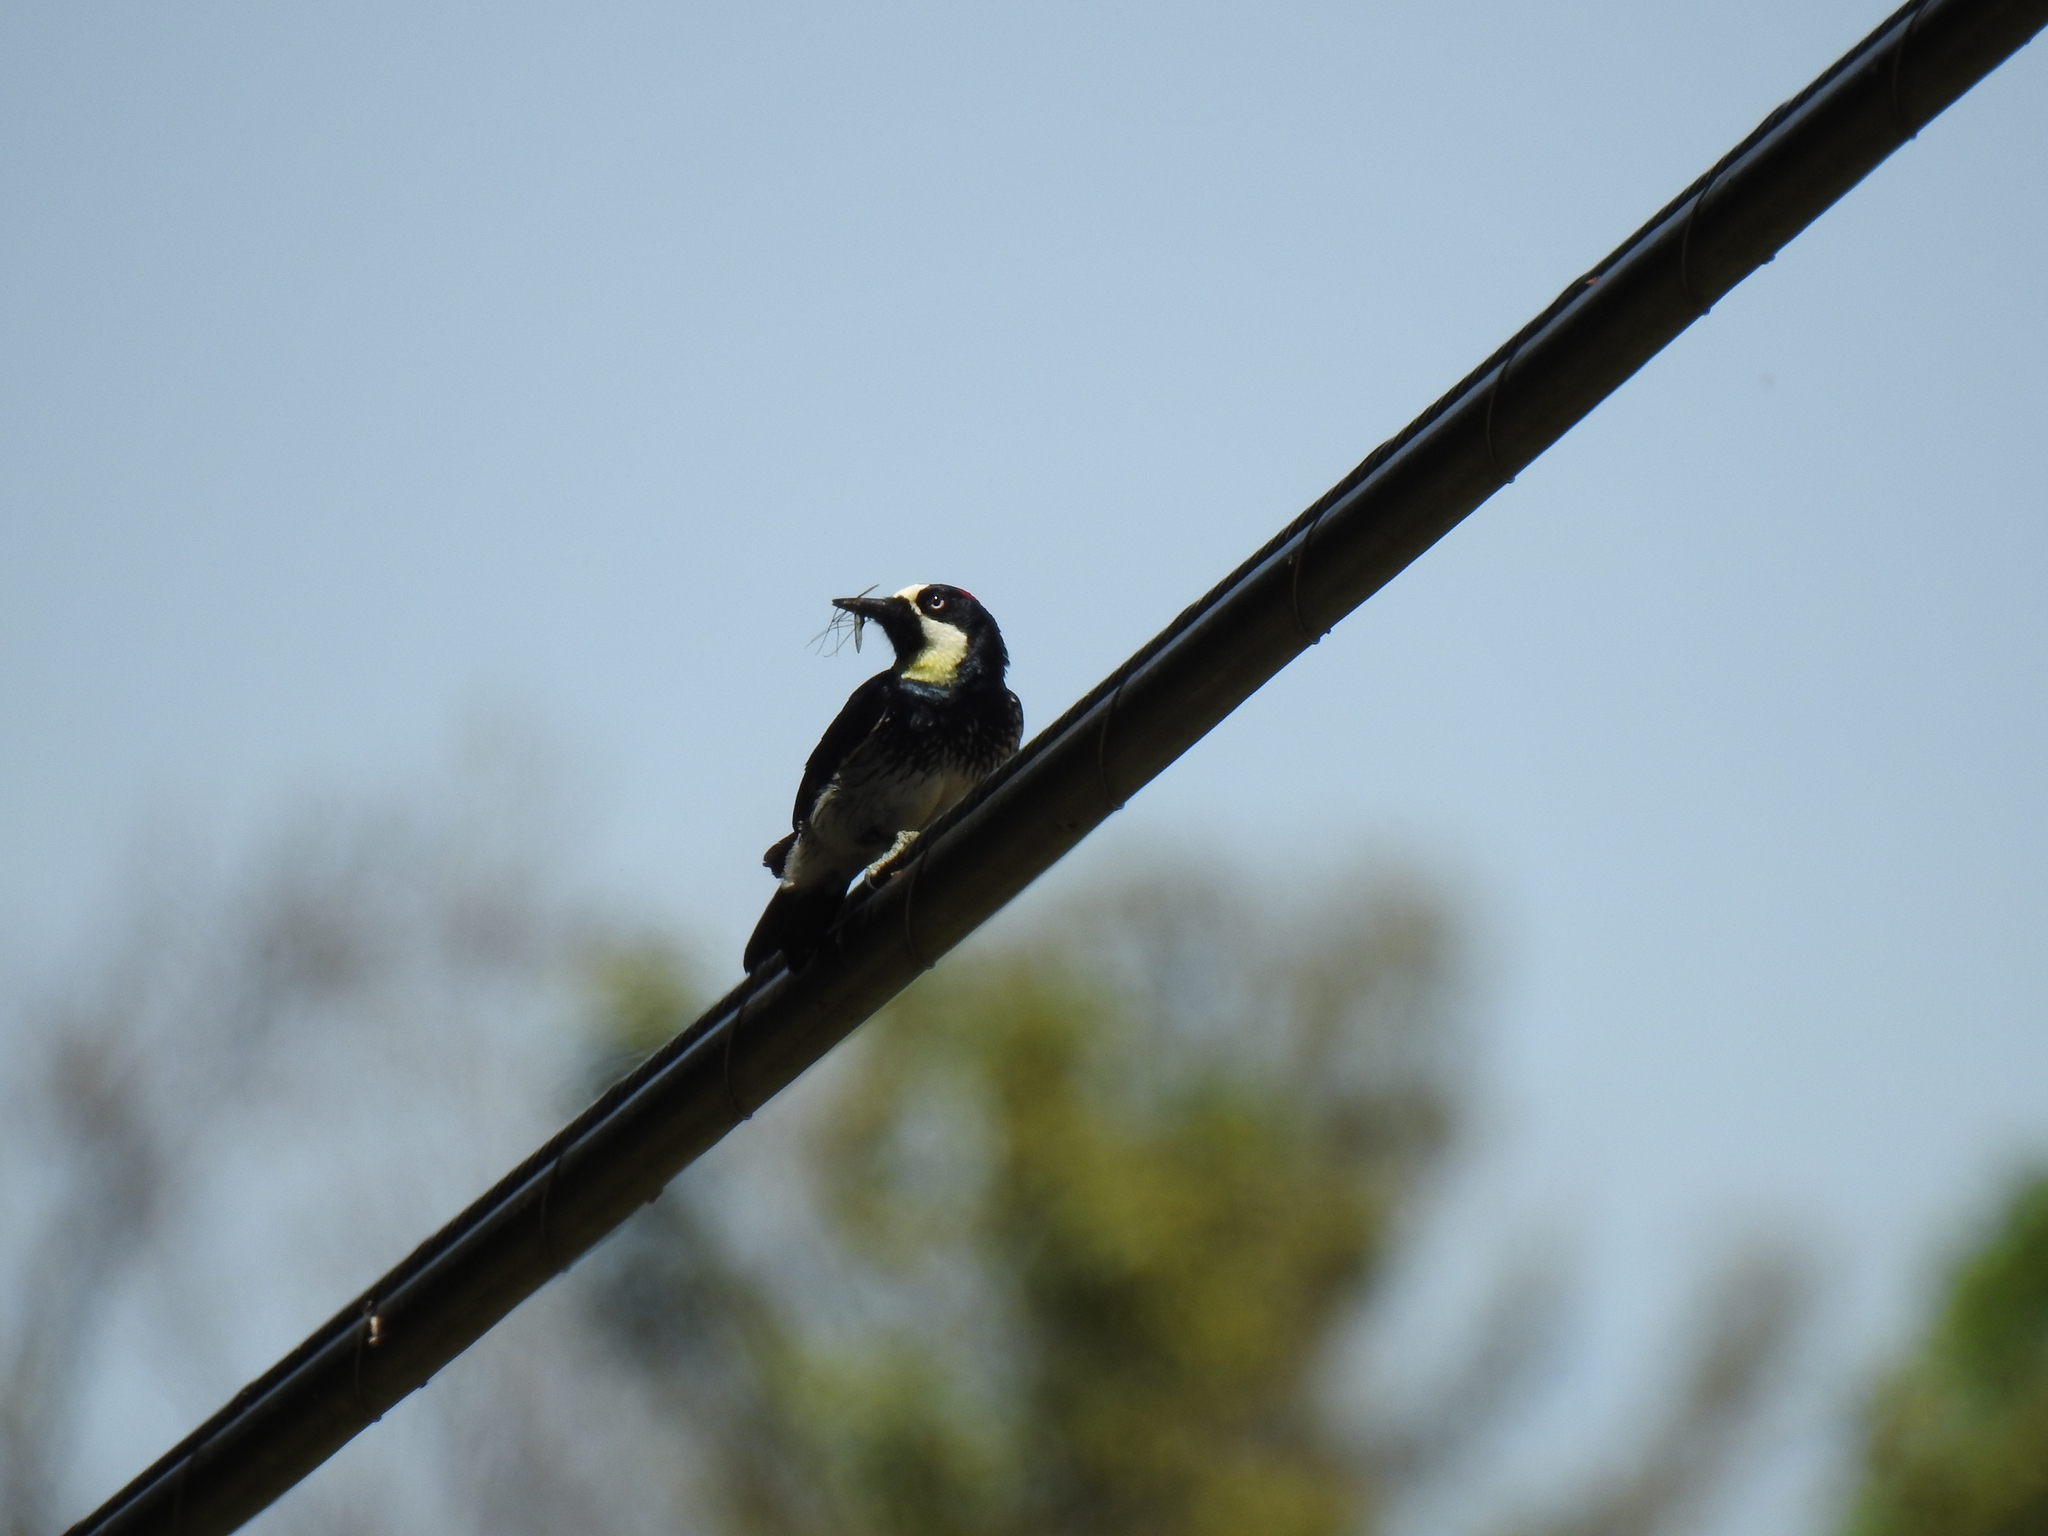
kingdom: Animalia
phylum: Chordata
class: Aves
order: Piciformes
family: Picidae
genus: Melanerpes
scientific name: Melanerpes formicivorus
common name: Acorn woodpecker
